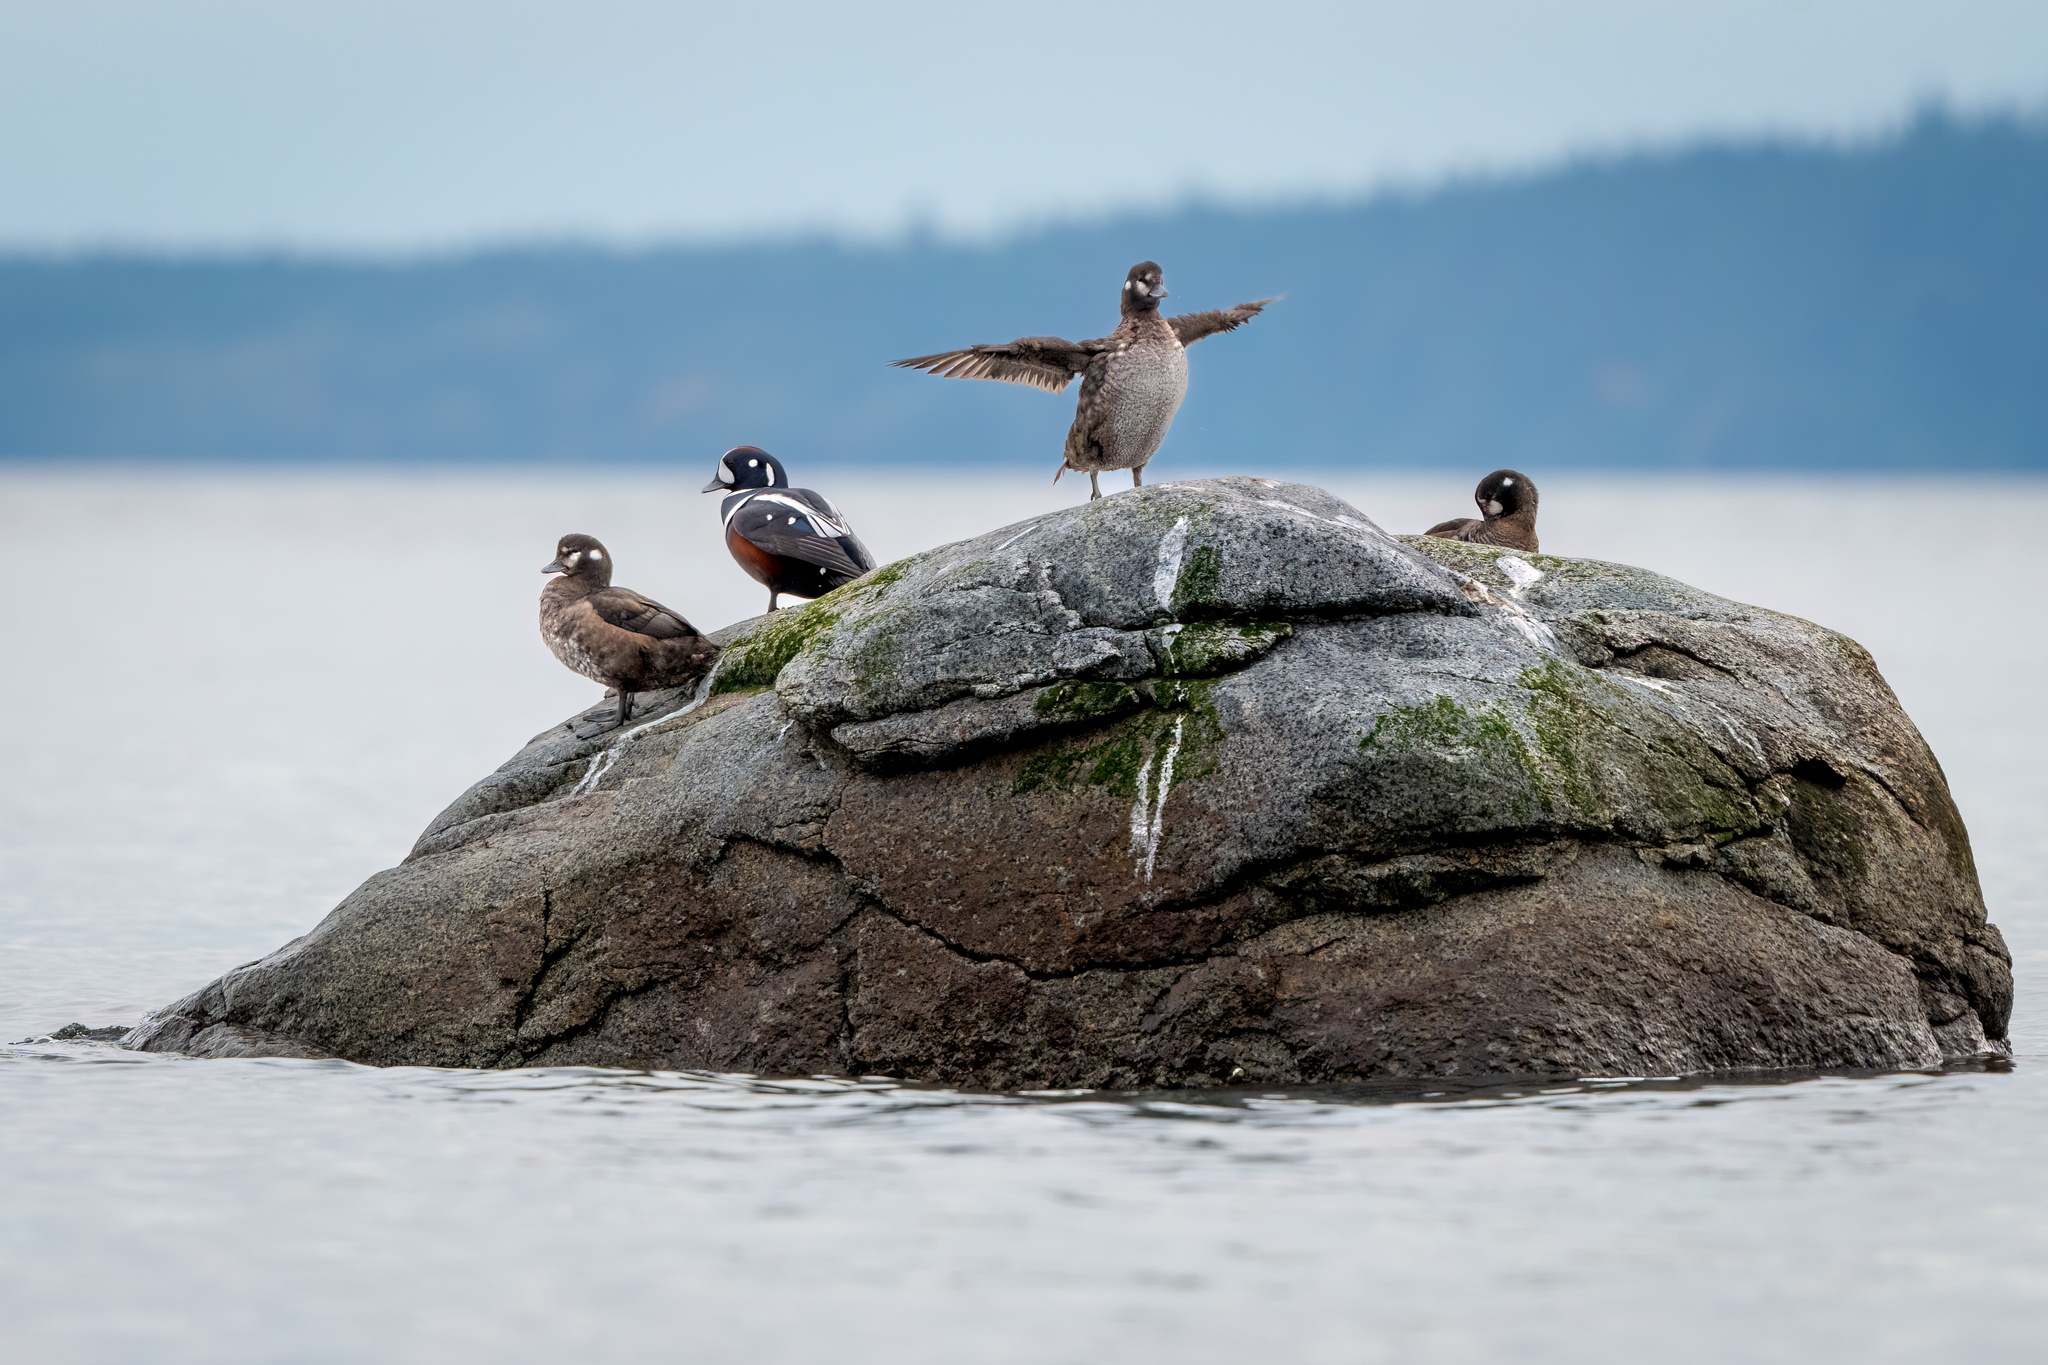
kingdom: Animalia
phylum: Chordata
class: Aves
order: Anseriformes
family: Anatidae
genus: Histrionicus
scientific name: Histrionicus histrionicus
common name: Harlequin duck
